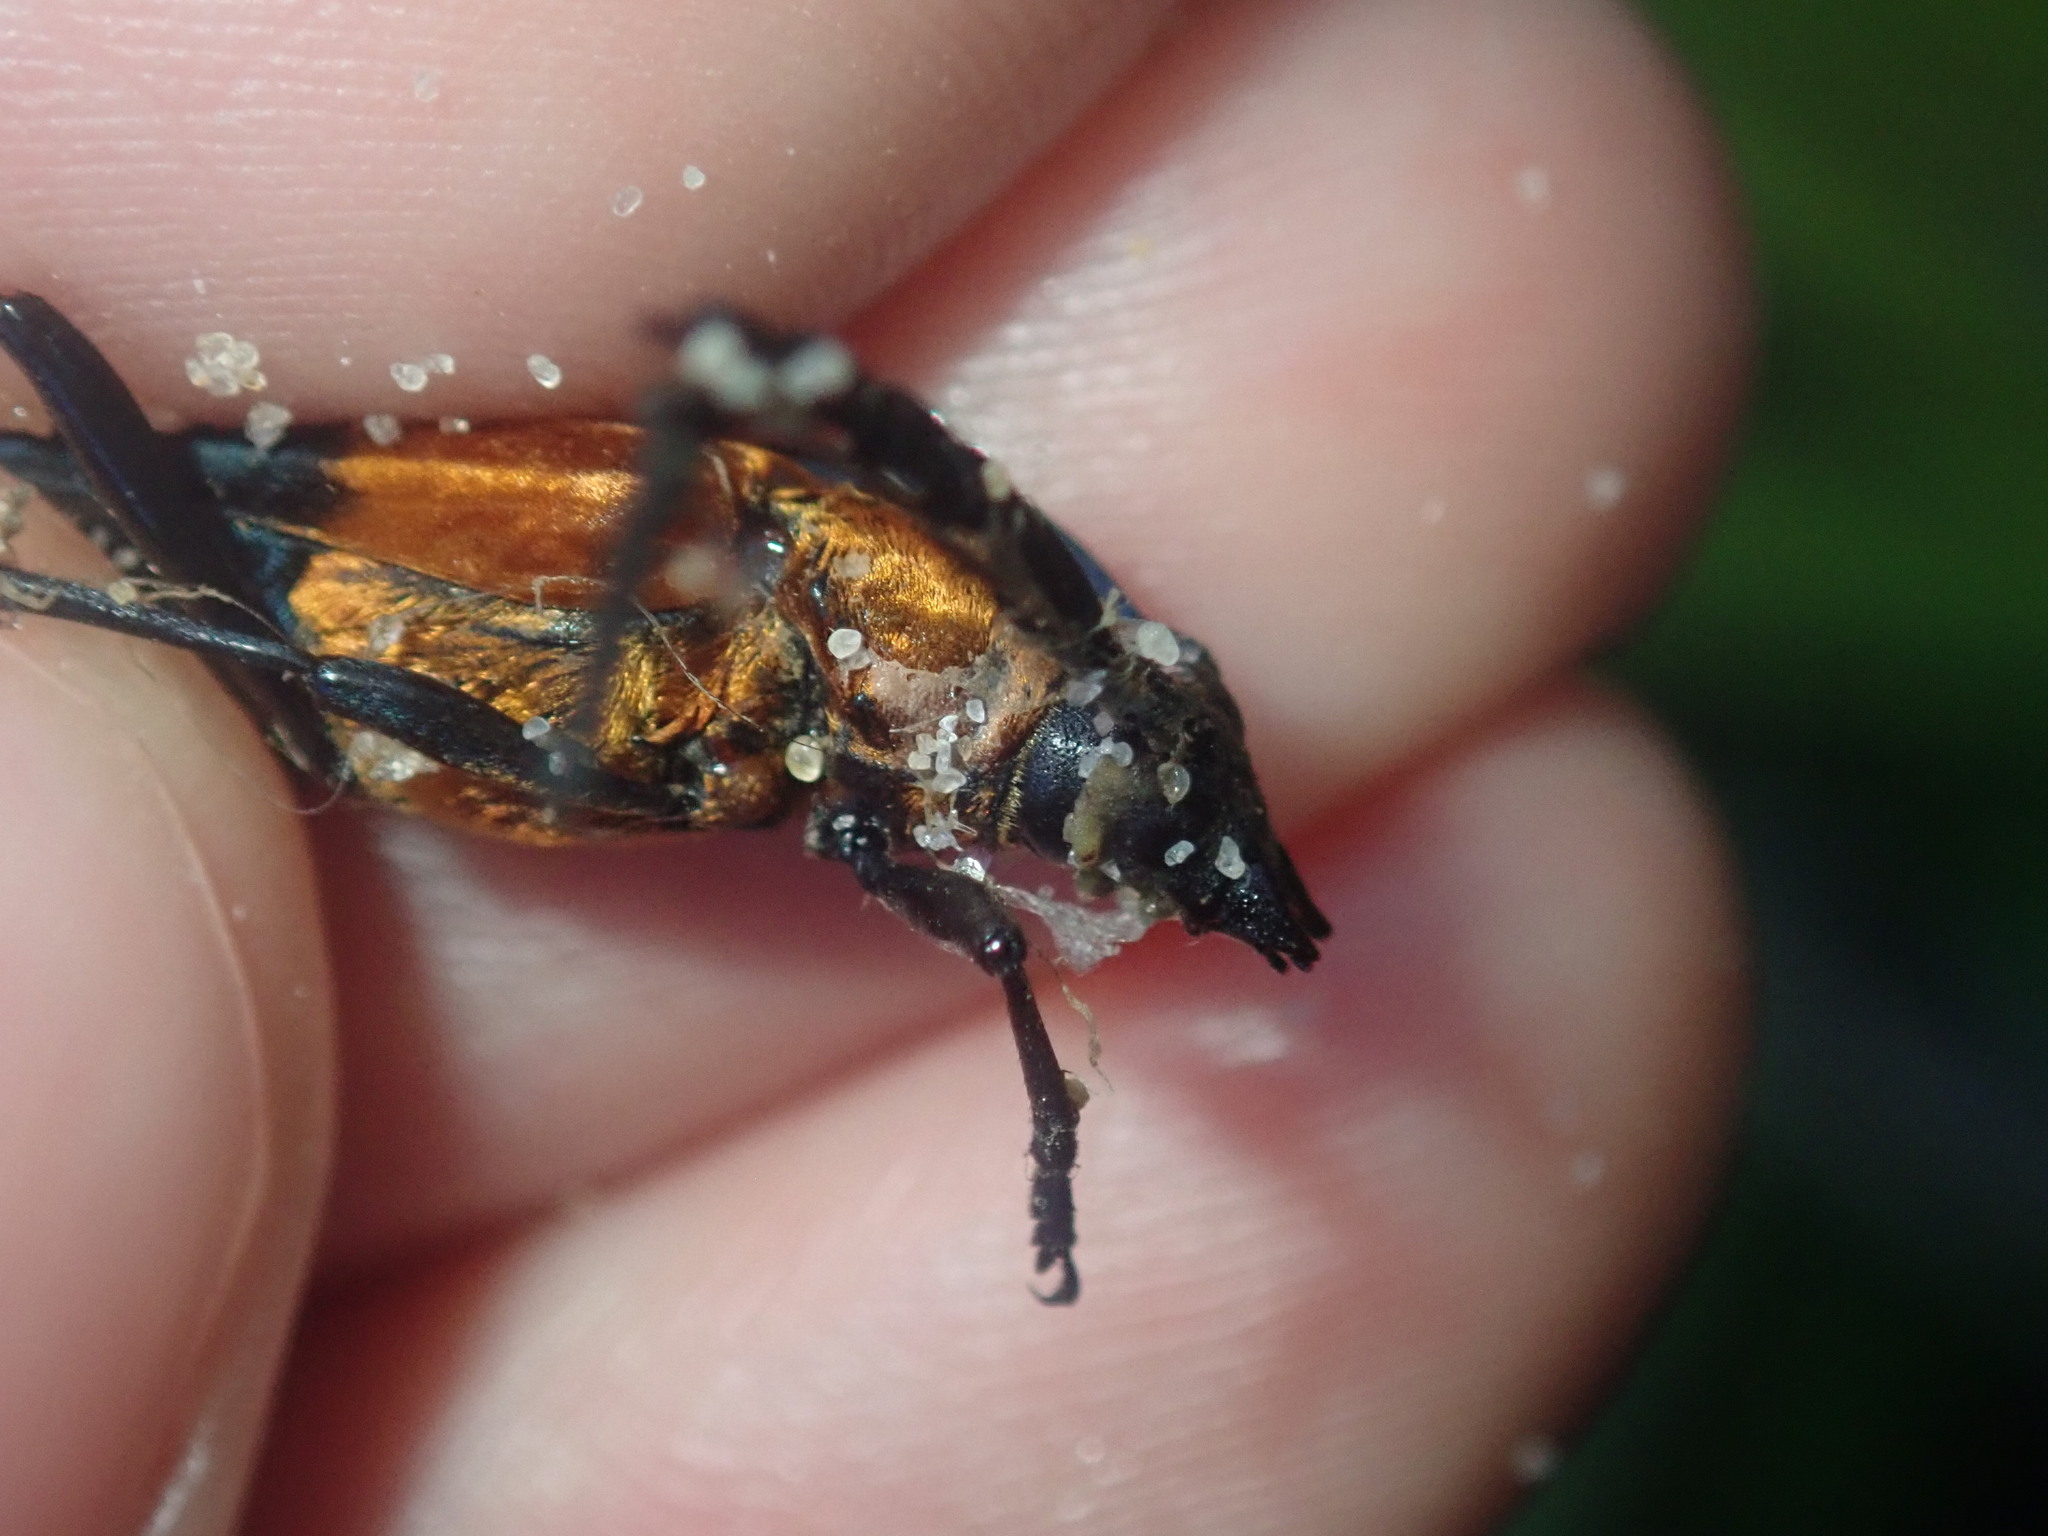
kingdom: Animalia
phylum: Arthropoda
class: Insecta
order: Coleoptera
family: Cerambycidae
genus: Distichocera
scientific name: Distichocera superba
